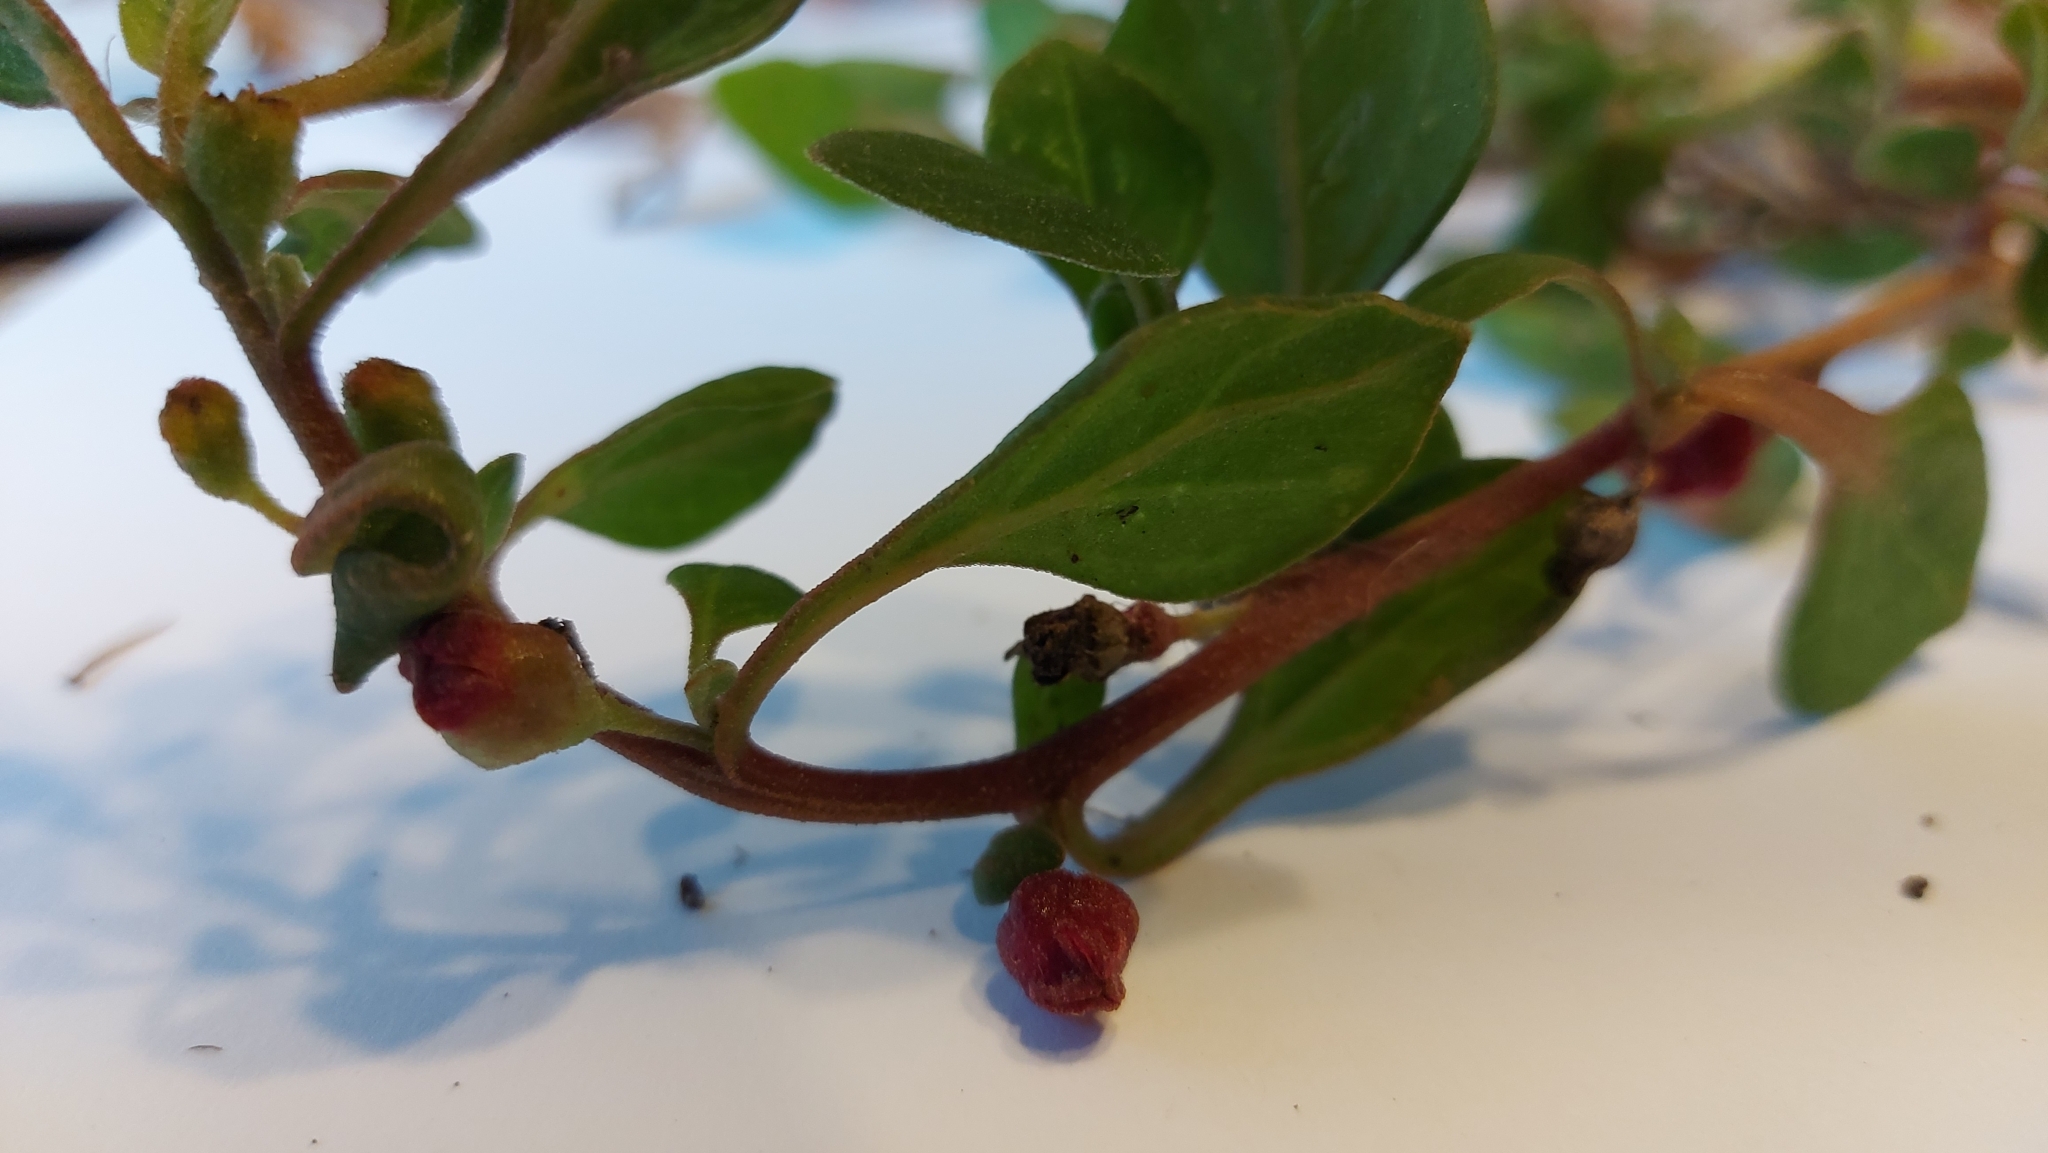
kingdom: Plantae
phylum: Tracheophyta
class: Magnoliopsida
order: Caryophyllales
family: Aizoaceae
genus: Tetragonia
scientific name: Tetragonia implexicoma
